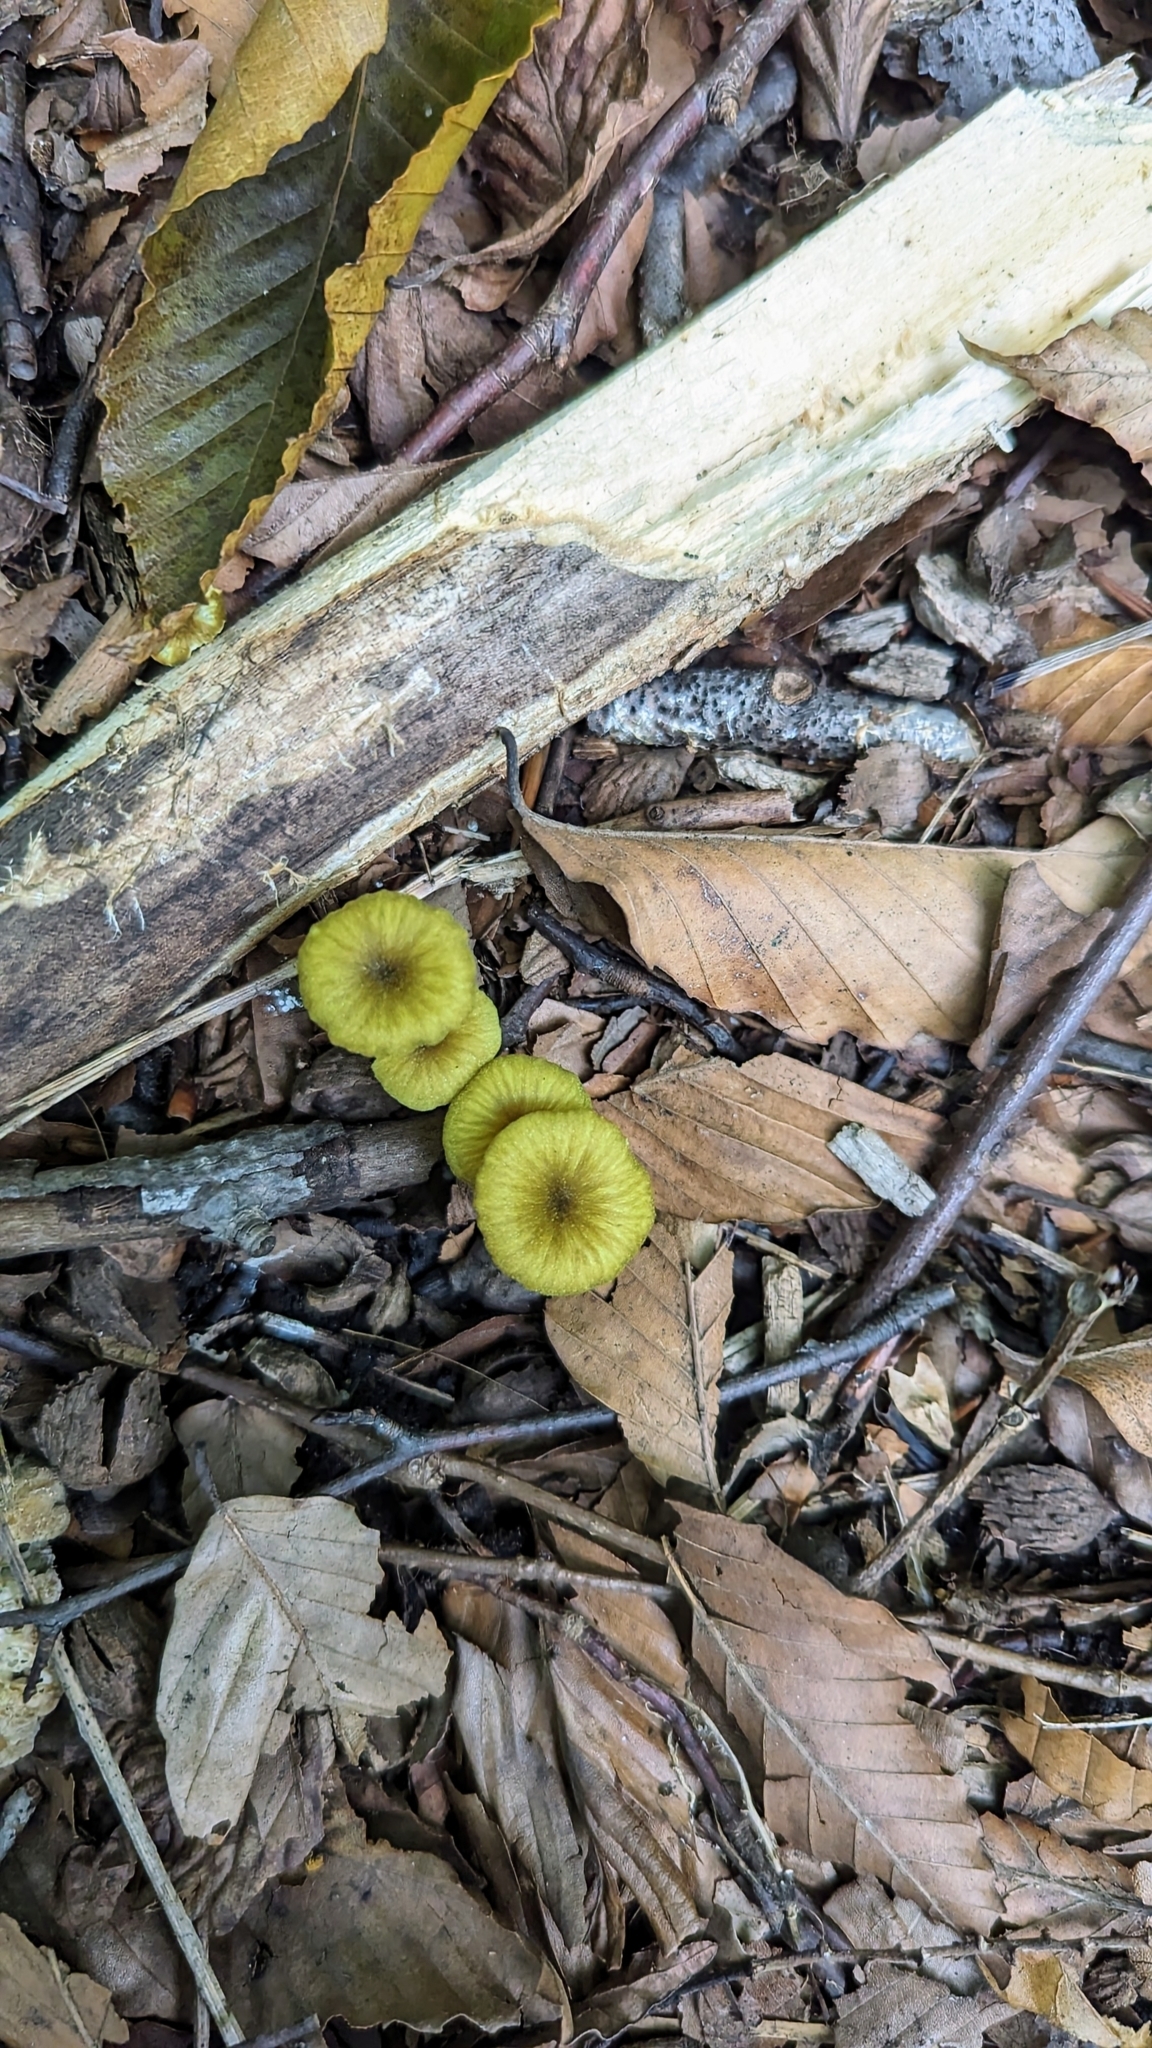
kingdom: Fungi
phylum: Basidiomycota
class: Agaricomycetes
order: Agaricales
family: Entolomataceae
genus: Entoloma
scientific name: Entoloma incanum
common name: Mousepee pinkgill
